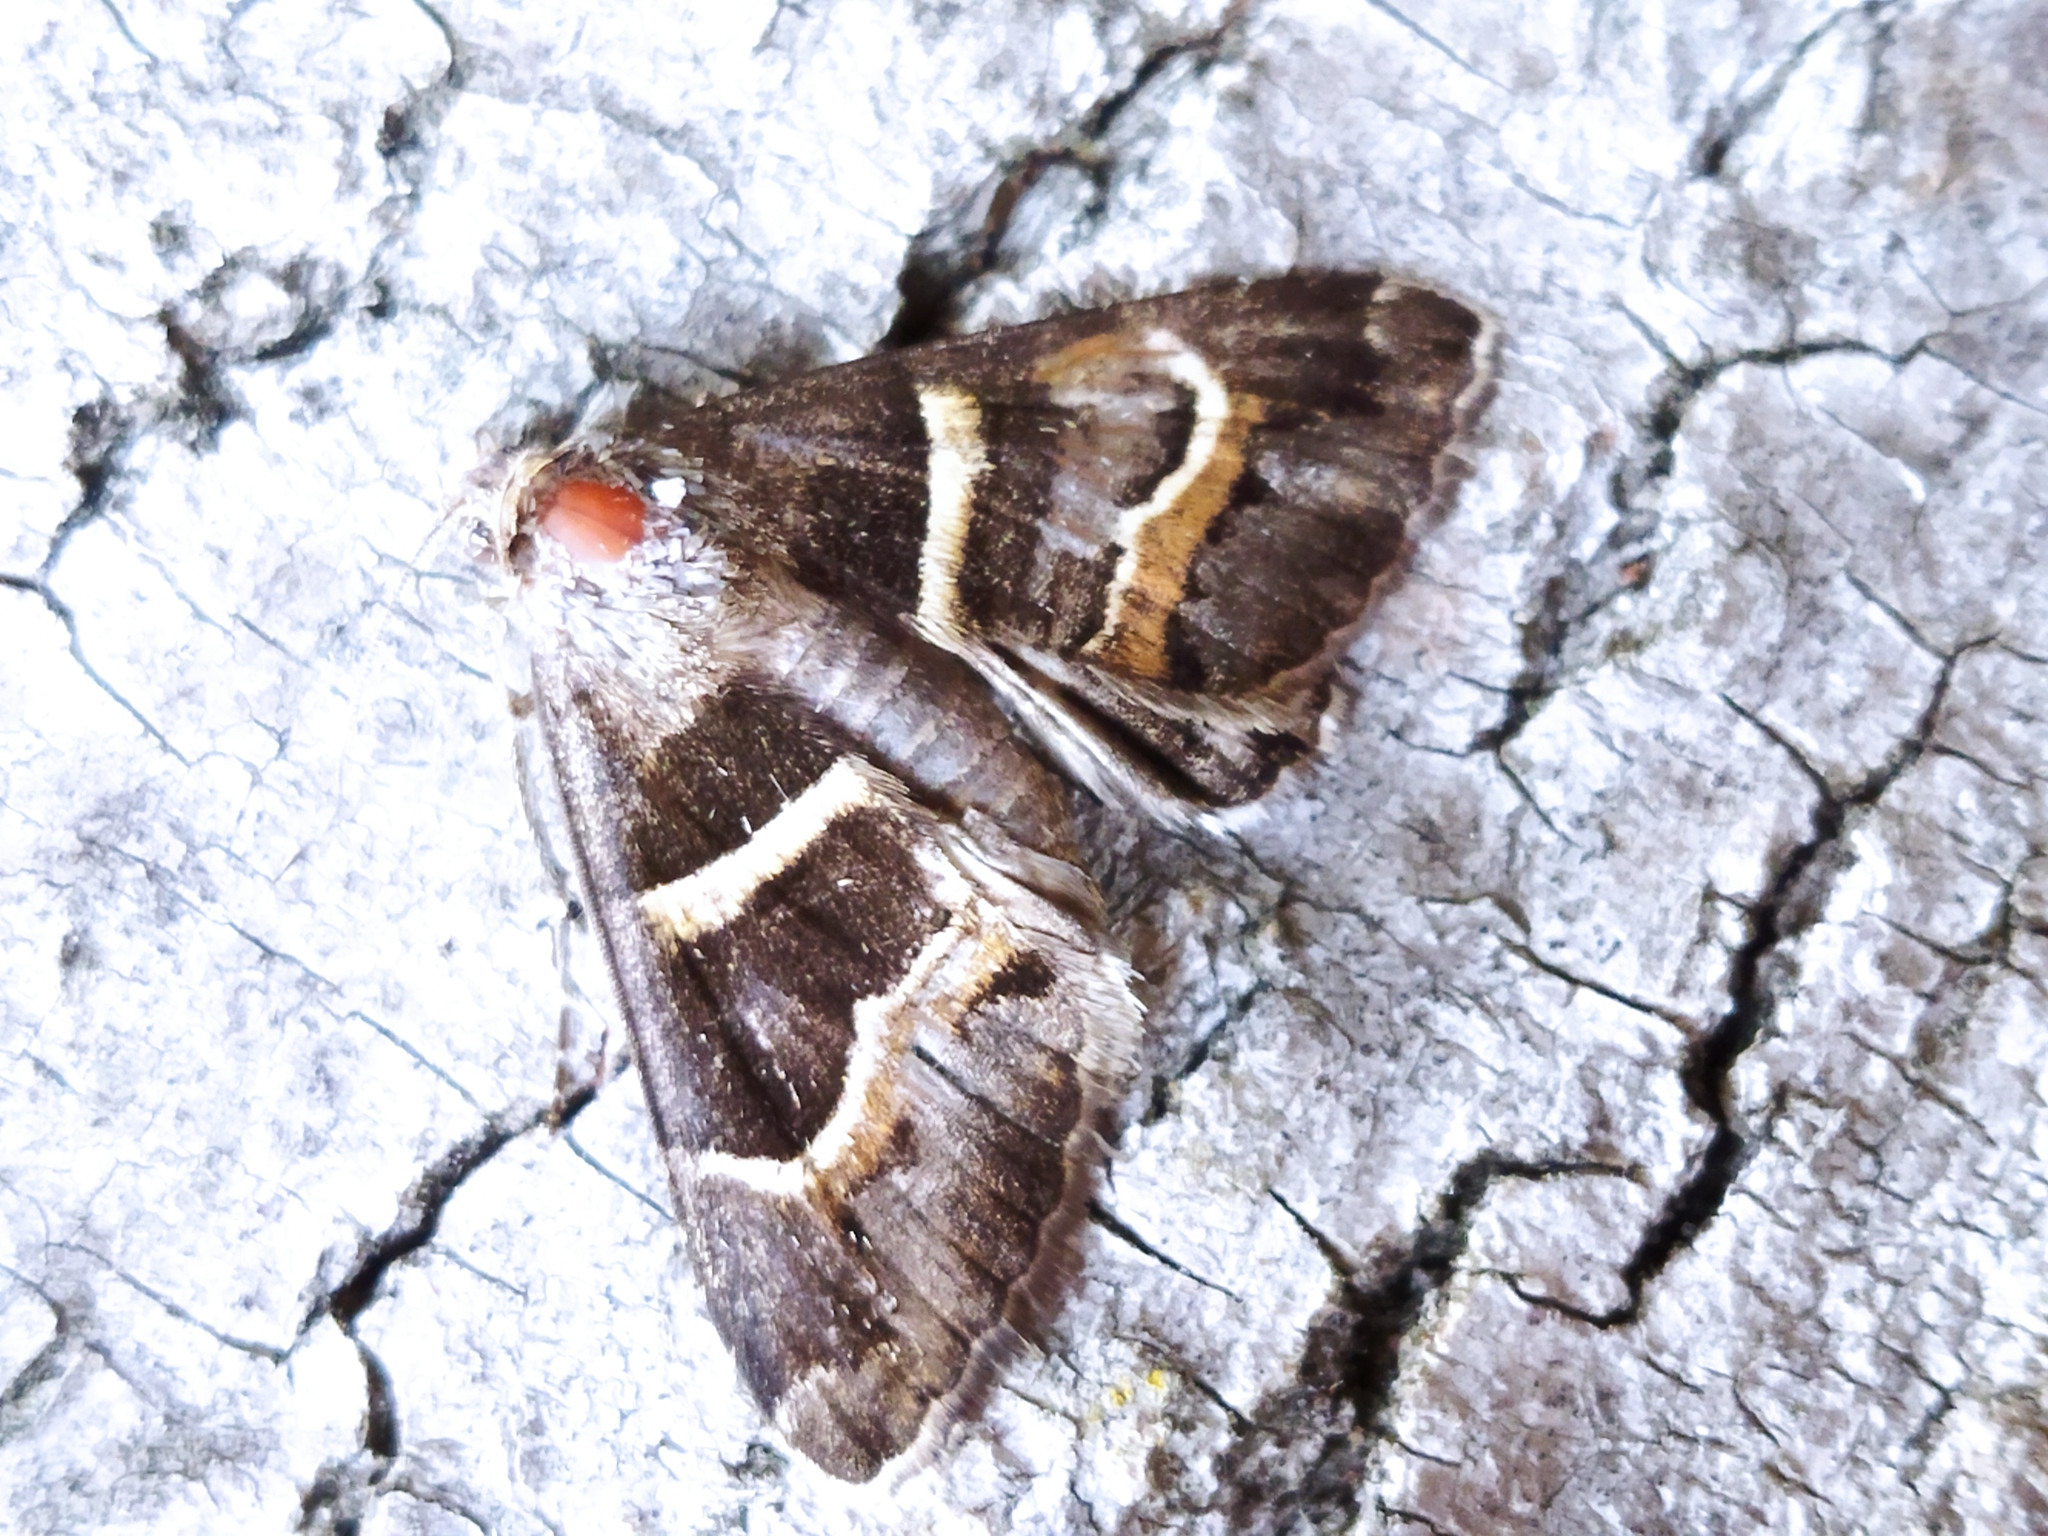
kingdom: Animalia
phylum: Arthropoda
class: Insecta
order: Lepidoptera
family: Erebidae
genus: Grammodes
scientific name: Grammodes stolida
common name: Geometrician
